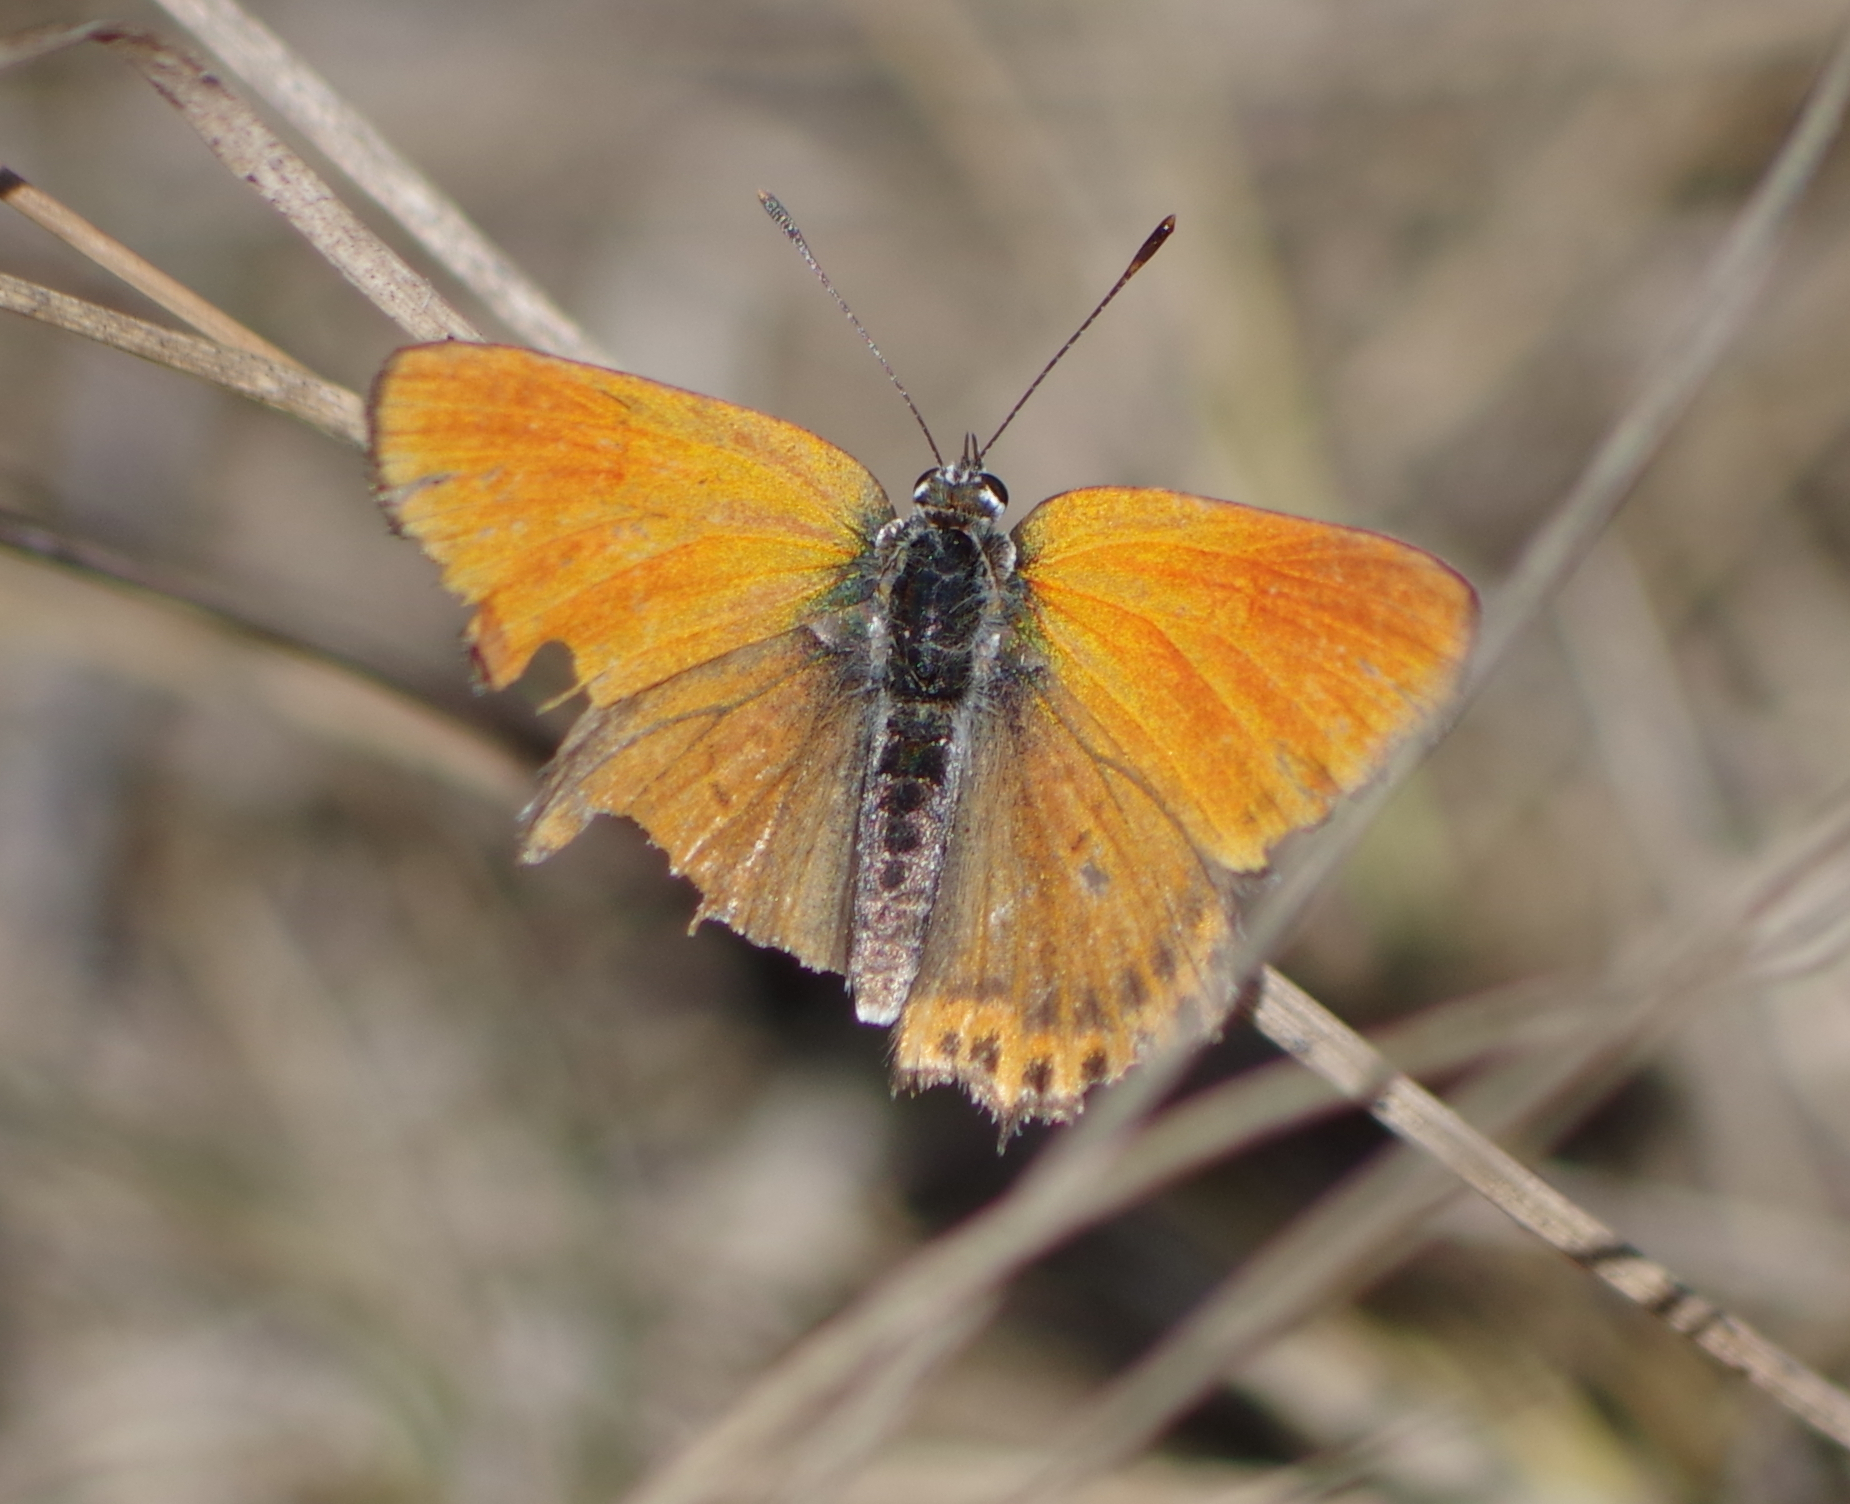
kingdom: Animalia
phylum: Arthropoda
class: Insecta
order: Lepidoptera
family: Lycaenidae
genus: Thersamonia
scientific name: Thersamonia thersamon
